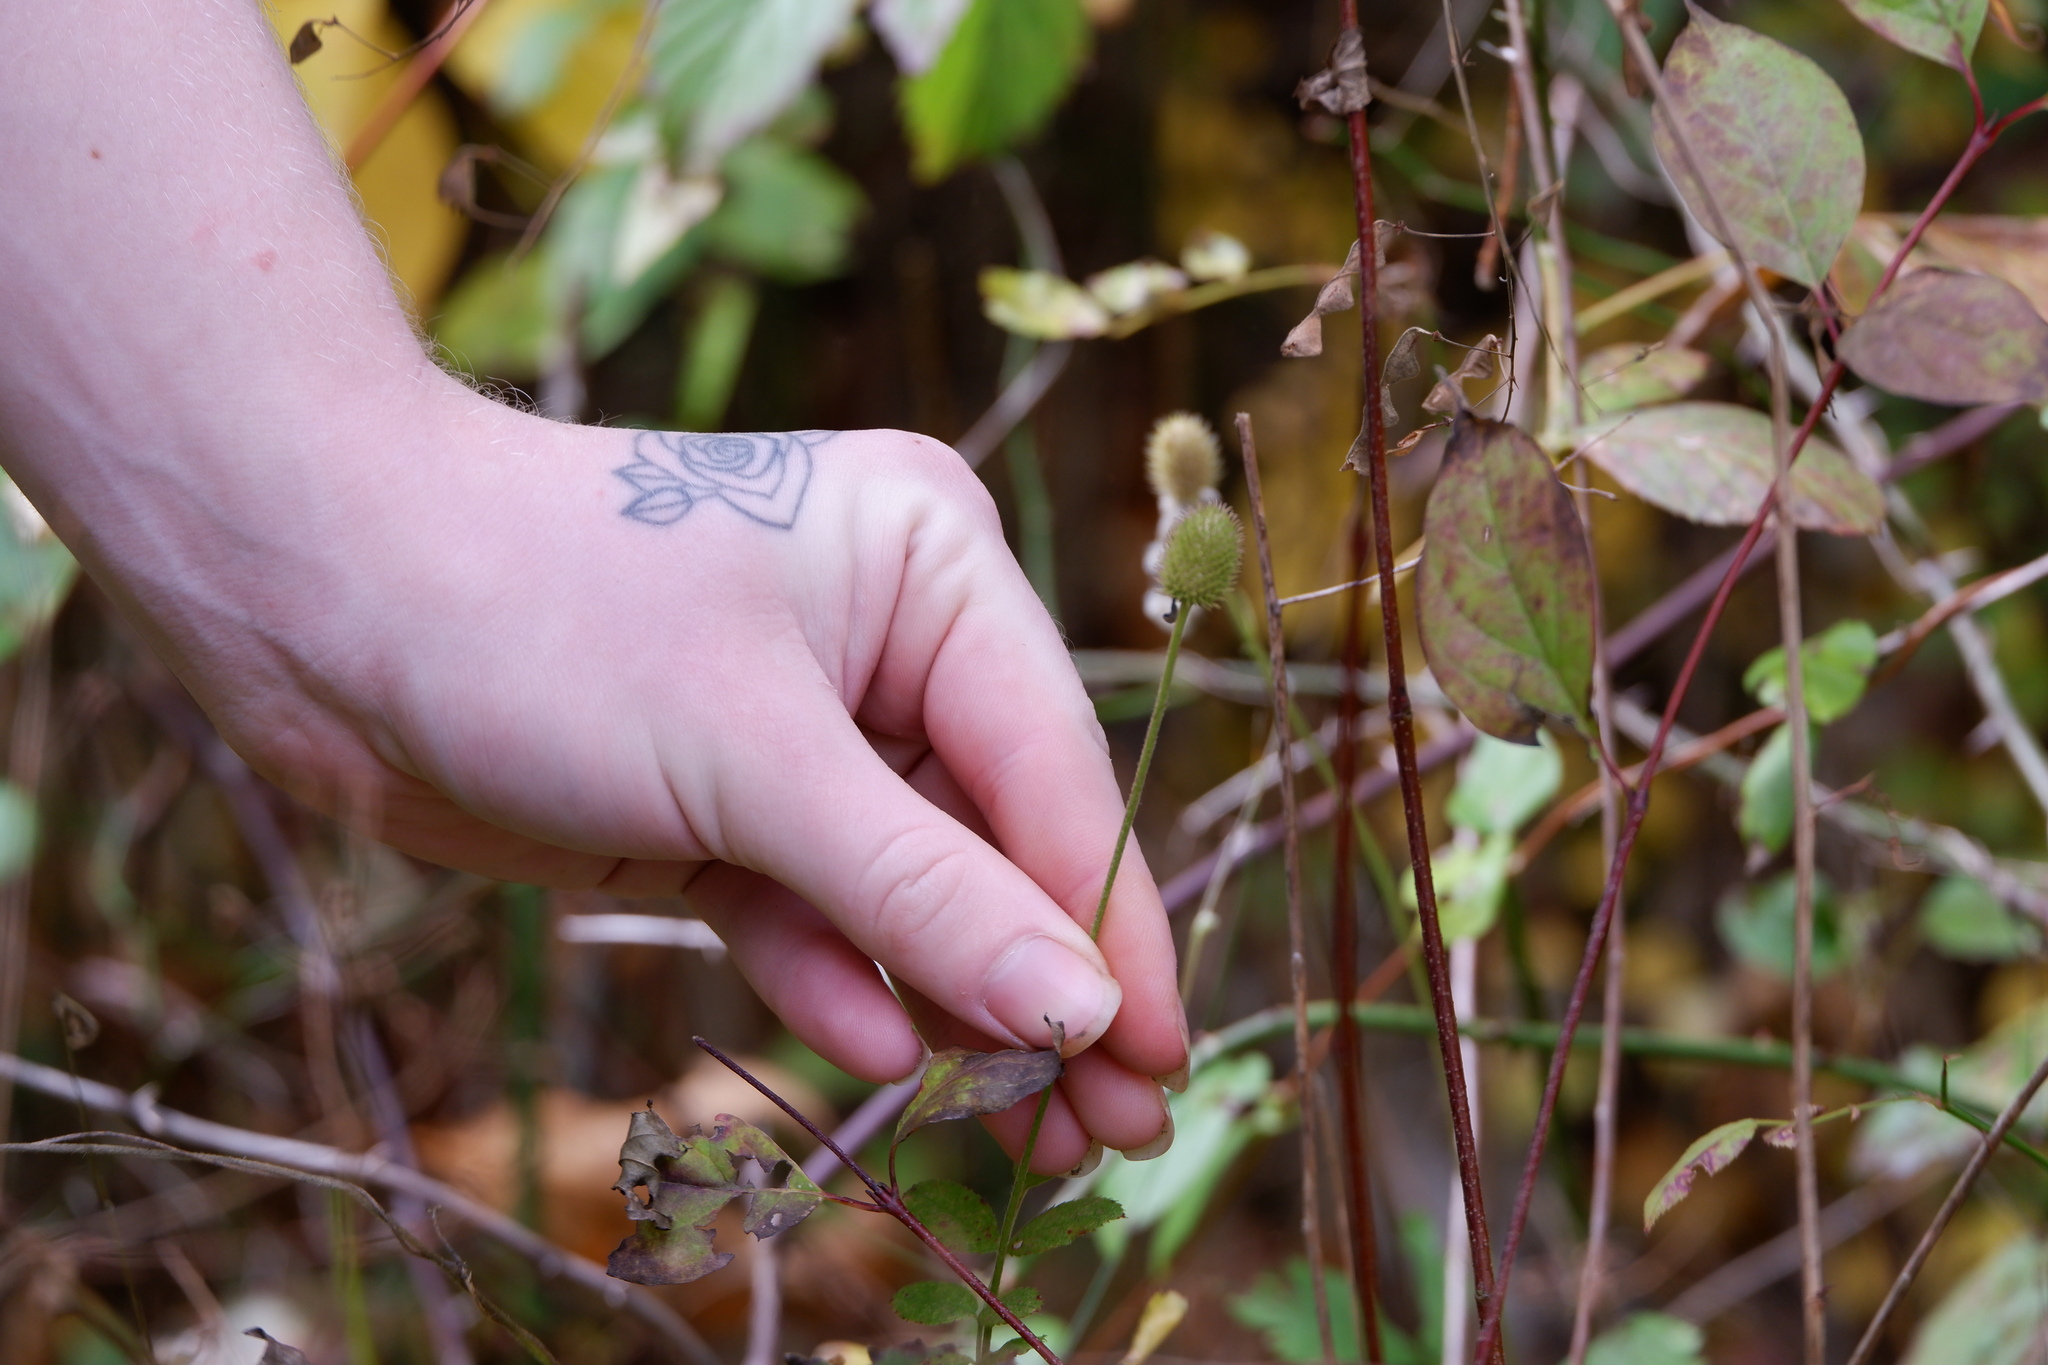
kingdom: Plantae
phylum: Tracheophyta
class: Magnoliopsida
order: Ranunculales
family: Ranunculaceae
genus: Anemone
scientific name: Anemone virginiana
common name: Tall anemone
